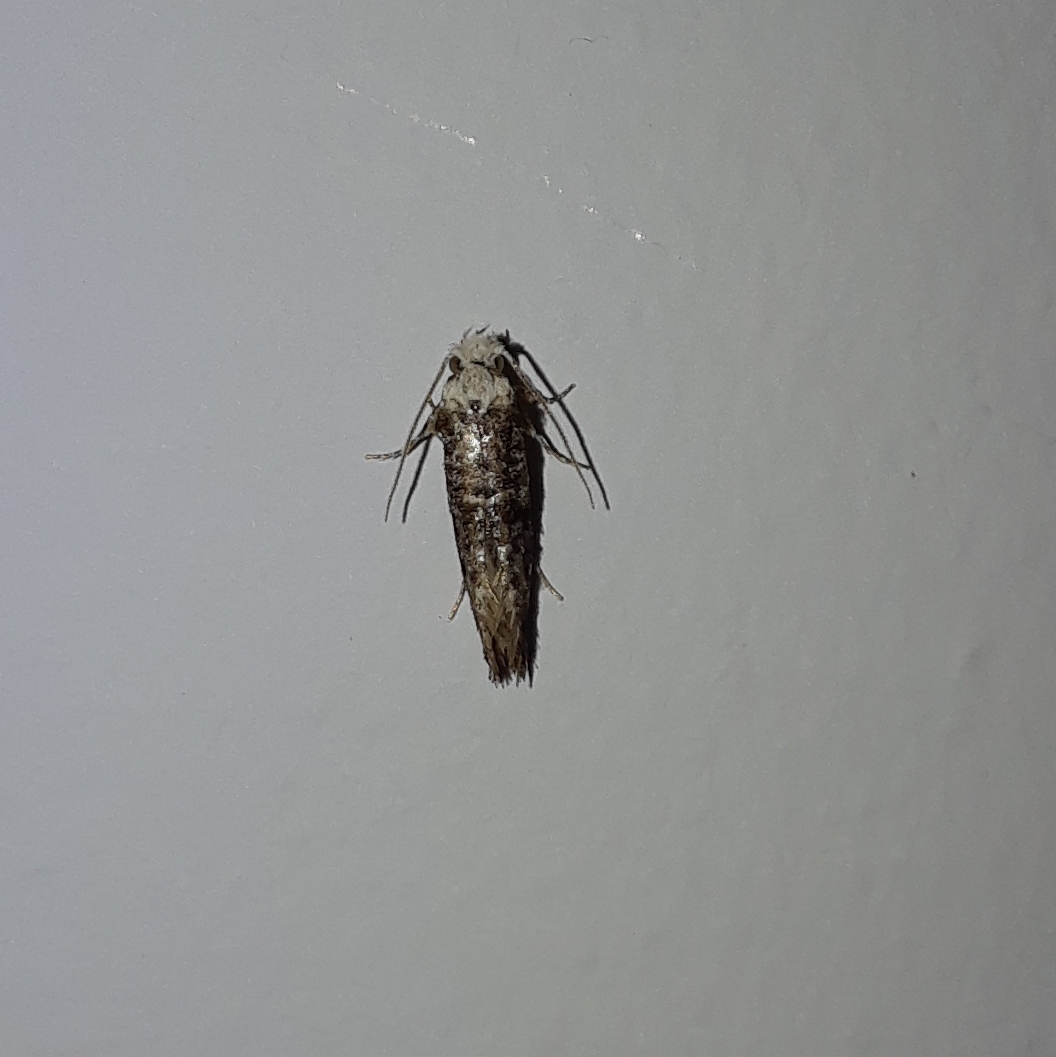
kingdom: Animalia
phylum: Arthropoda
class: Insecta
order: Lepidoptera
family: Tineidae
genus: Xylesthia
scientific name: Xylesthia pruniramiella
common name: Clemens' bark moth
